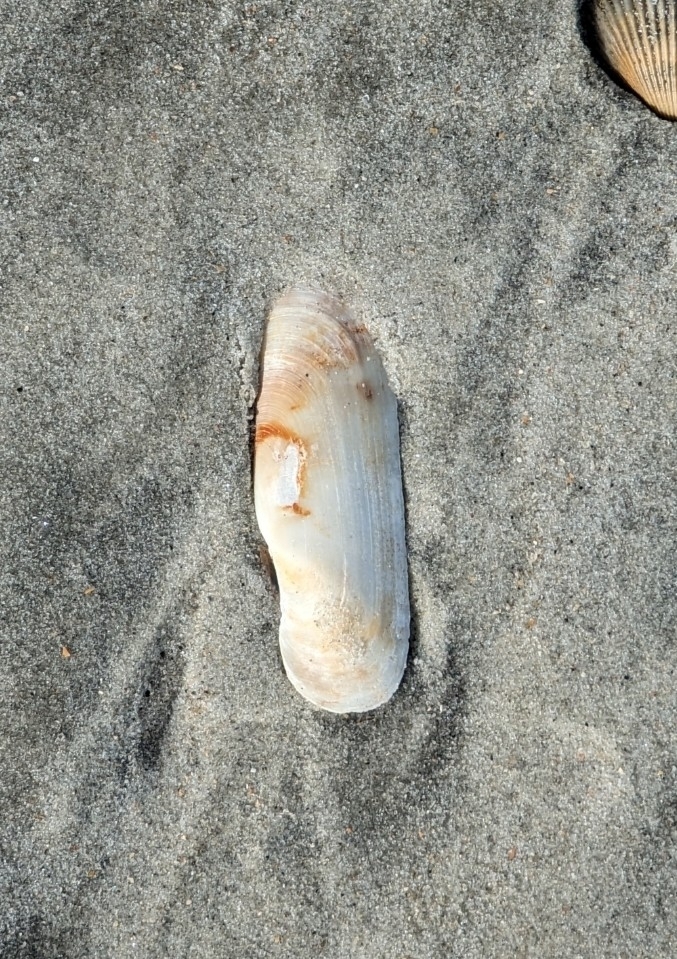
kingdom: Animalia
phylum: Mollusca
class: Bivalvia
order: Cardiida
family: Solecurtidae
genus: Tagelus
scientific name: Tagelus plebeius
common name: Stout tagelus
